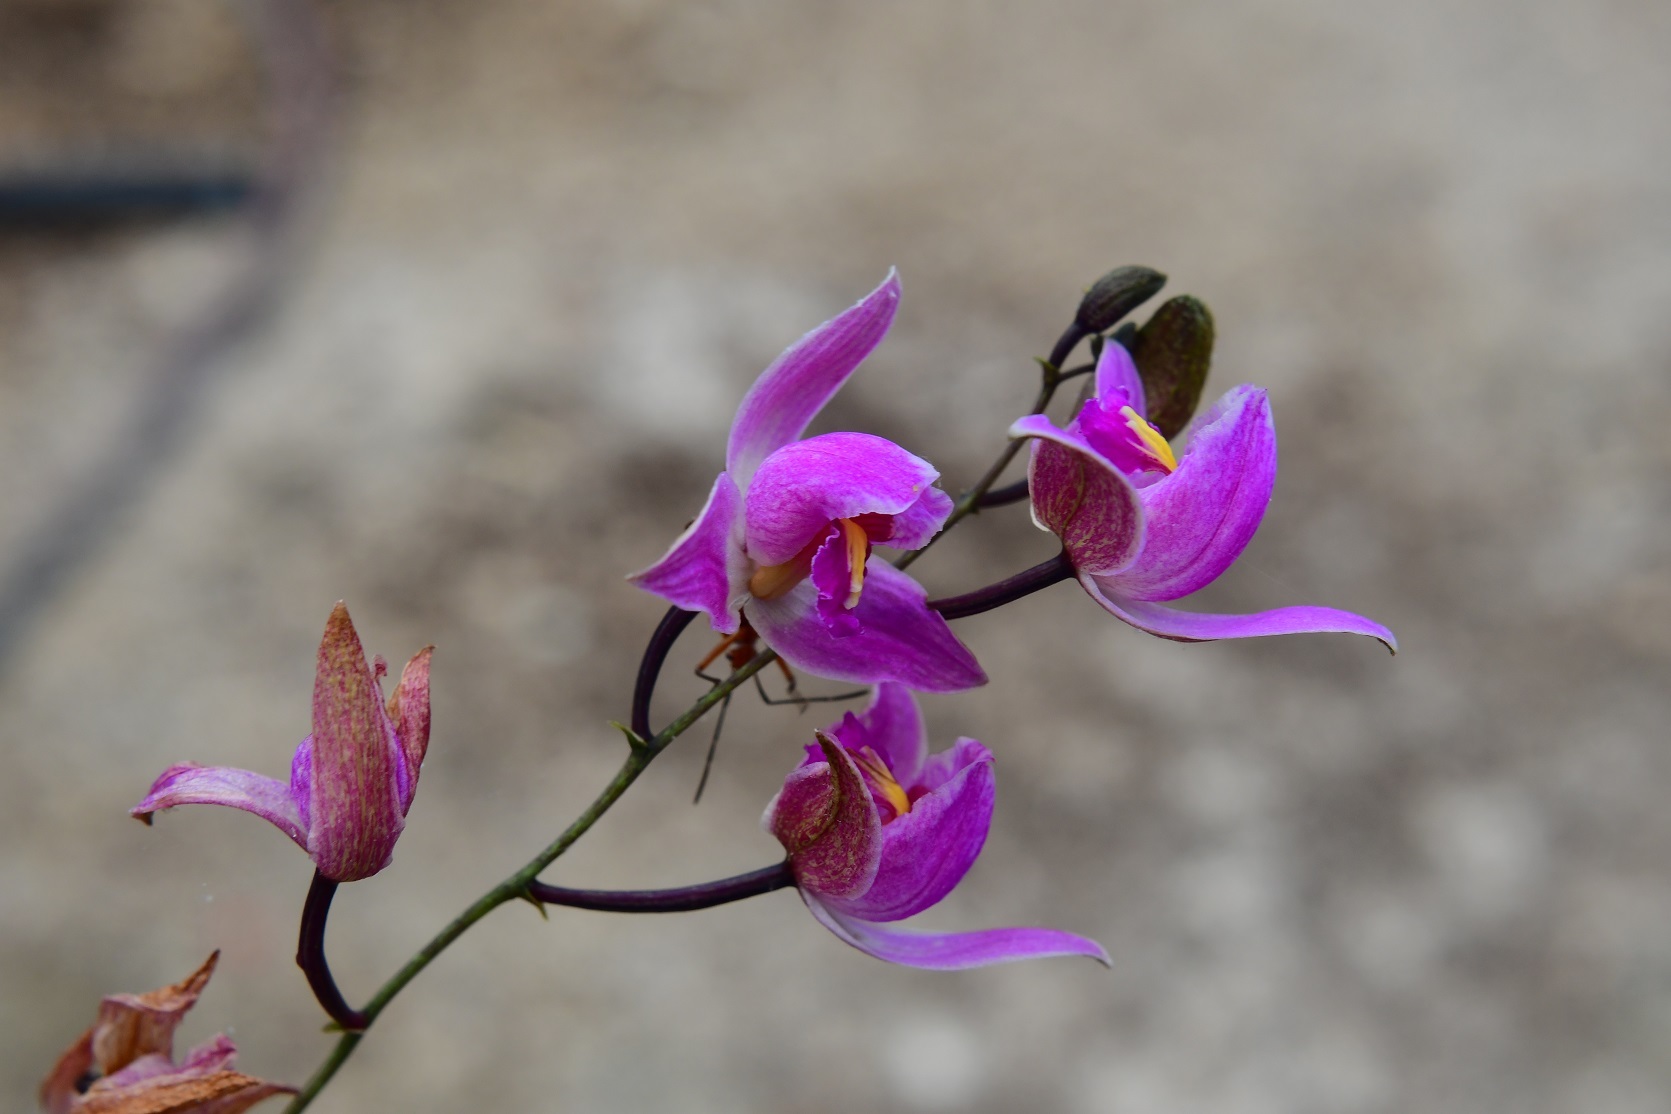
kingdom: Plantae
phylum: Tracheophyta
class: Liliopsida
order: Asparagales
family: Orchidaceae
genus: Bletia
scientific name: Bletia purpurea
